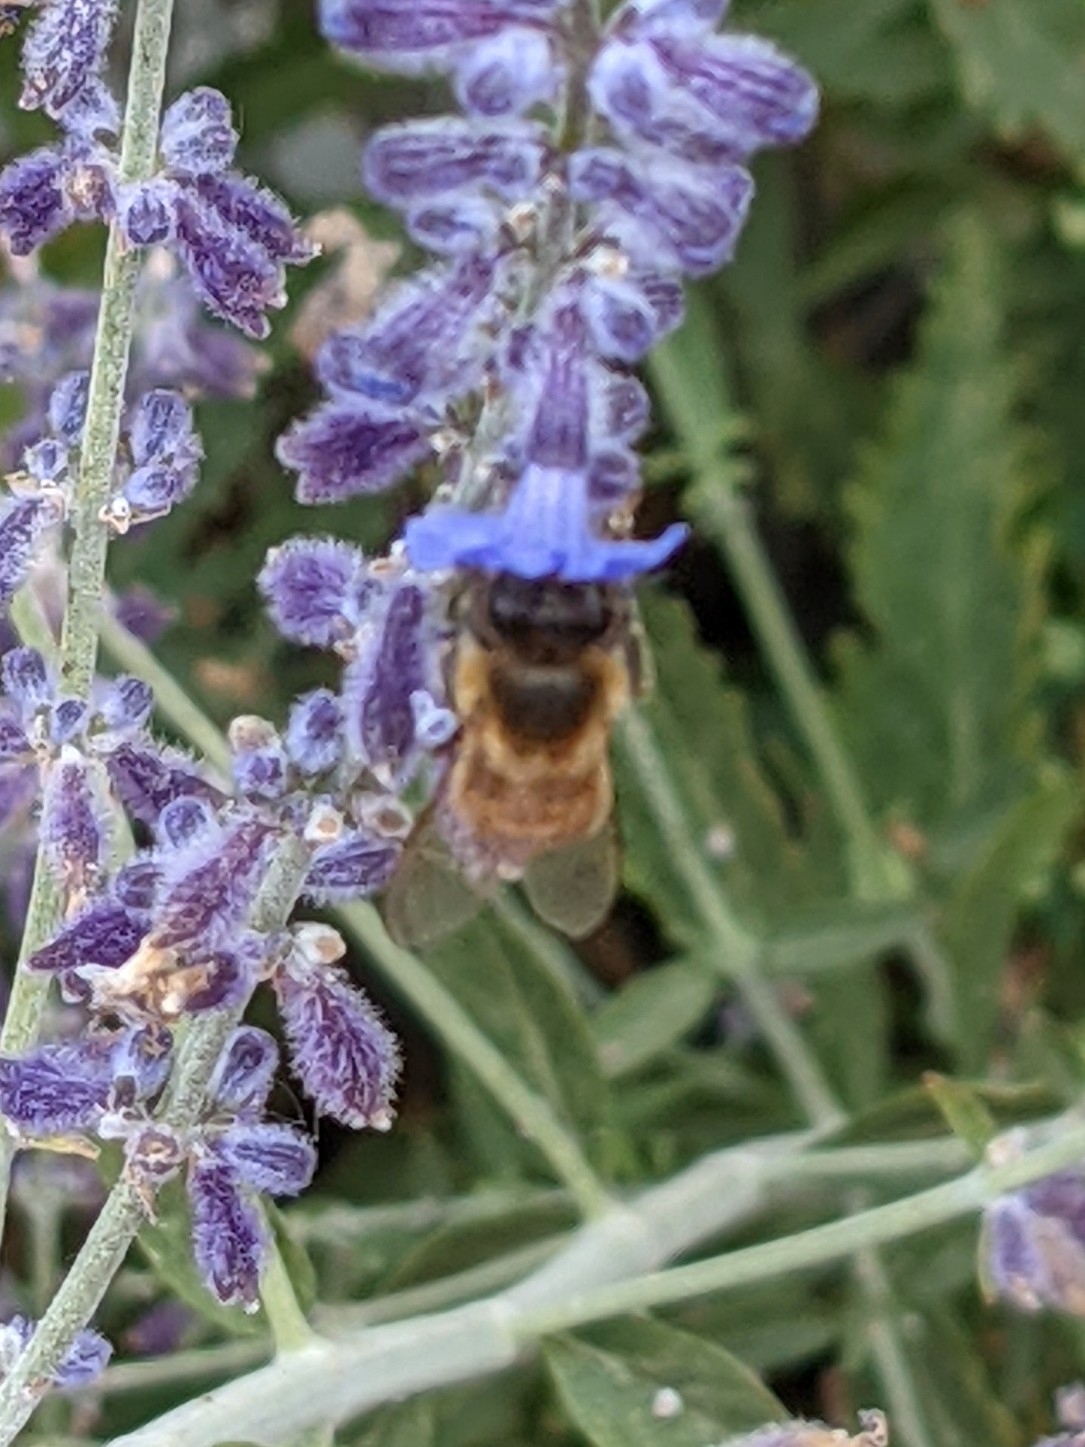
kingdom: Animalia
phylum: Arthropoda
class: Insecta
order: Hymenoptera
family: Apidae
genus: Apis
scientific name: Apis mellifera
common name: Honey bee
